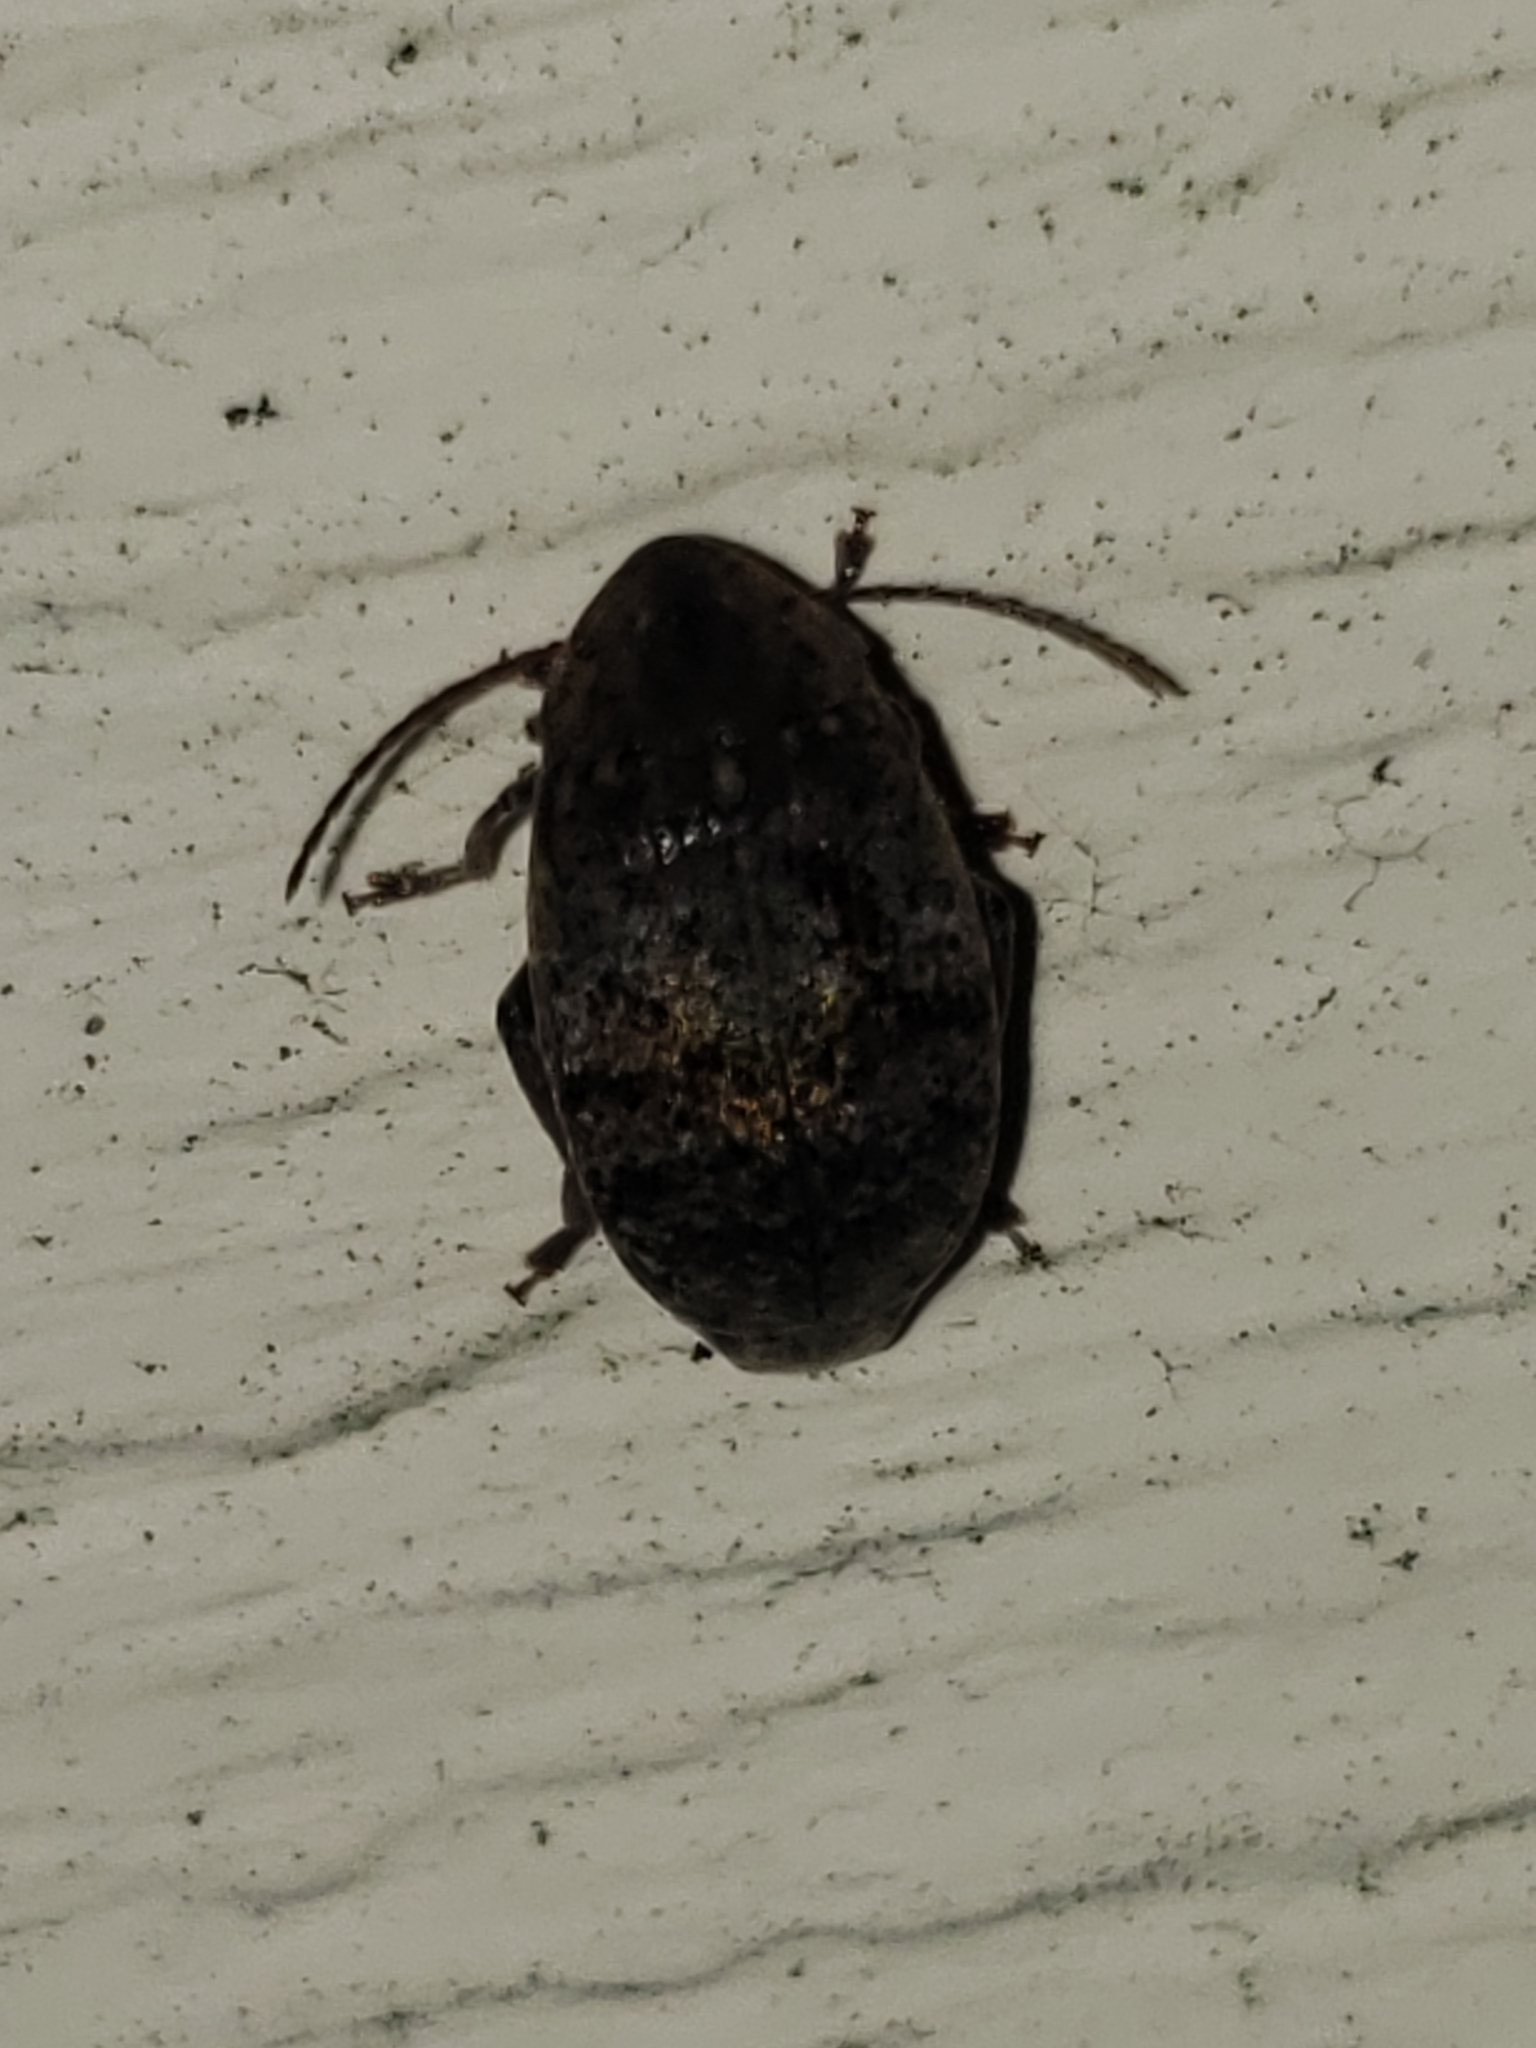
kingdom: Animalia
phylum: Arthropoda
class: Insecta
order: Coleoptera
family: Chrysomelidae
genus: Amblycerus
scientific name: Amblycerus robiniae
